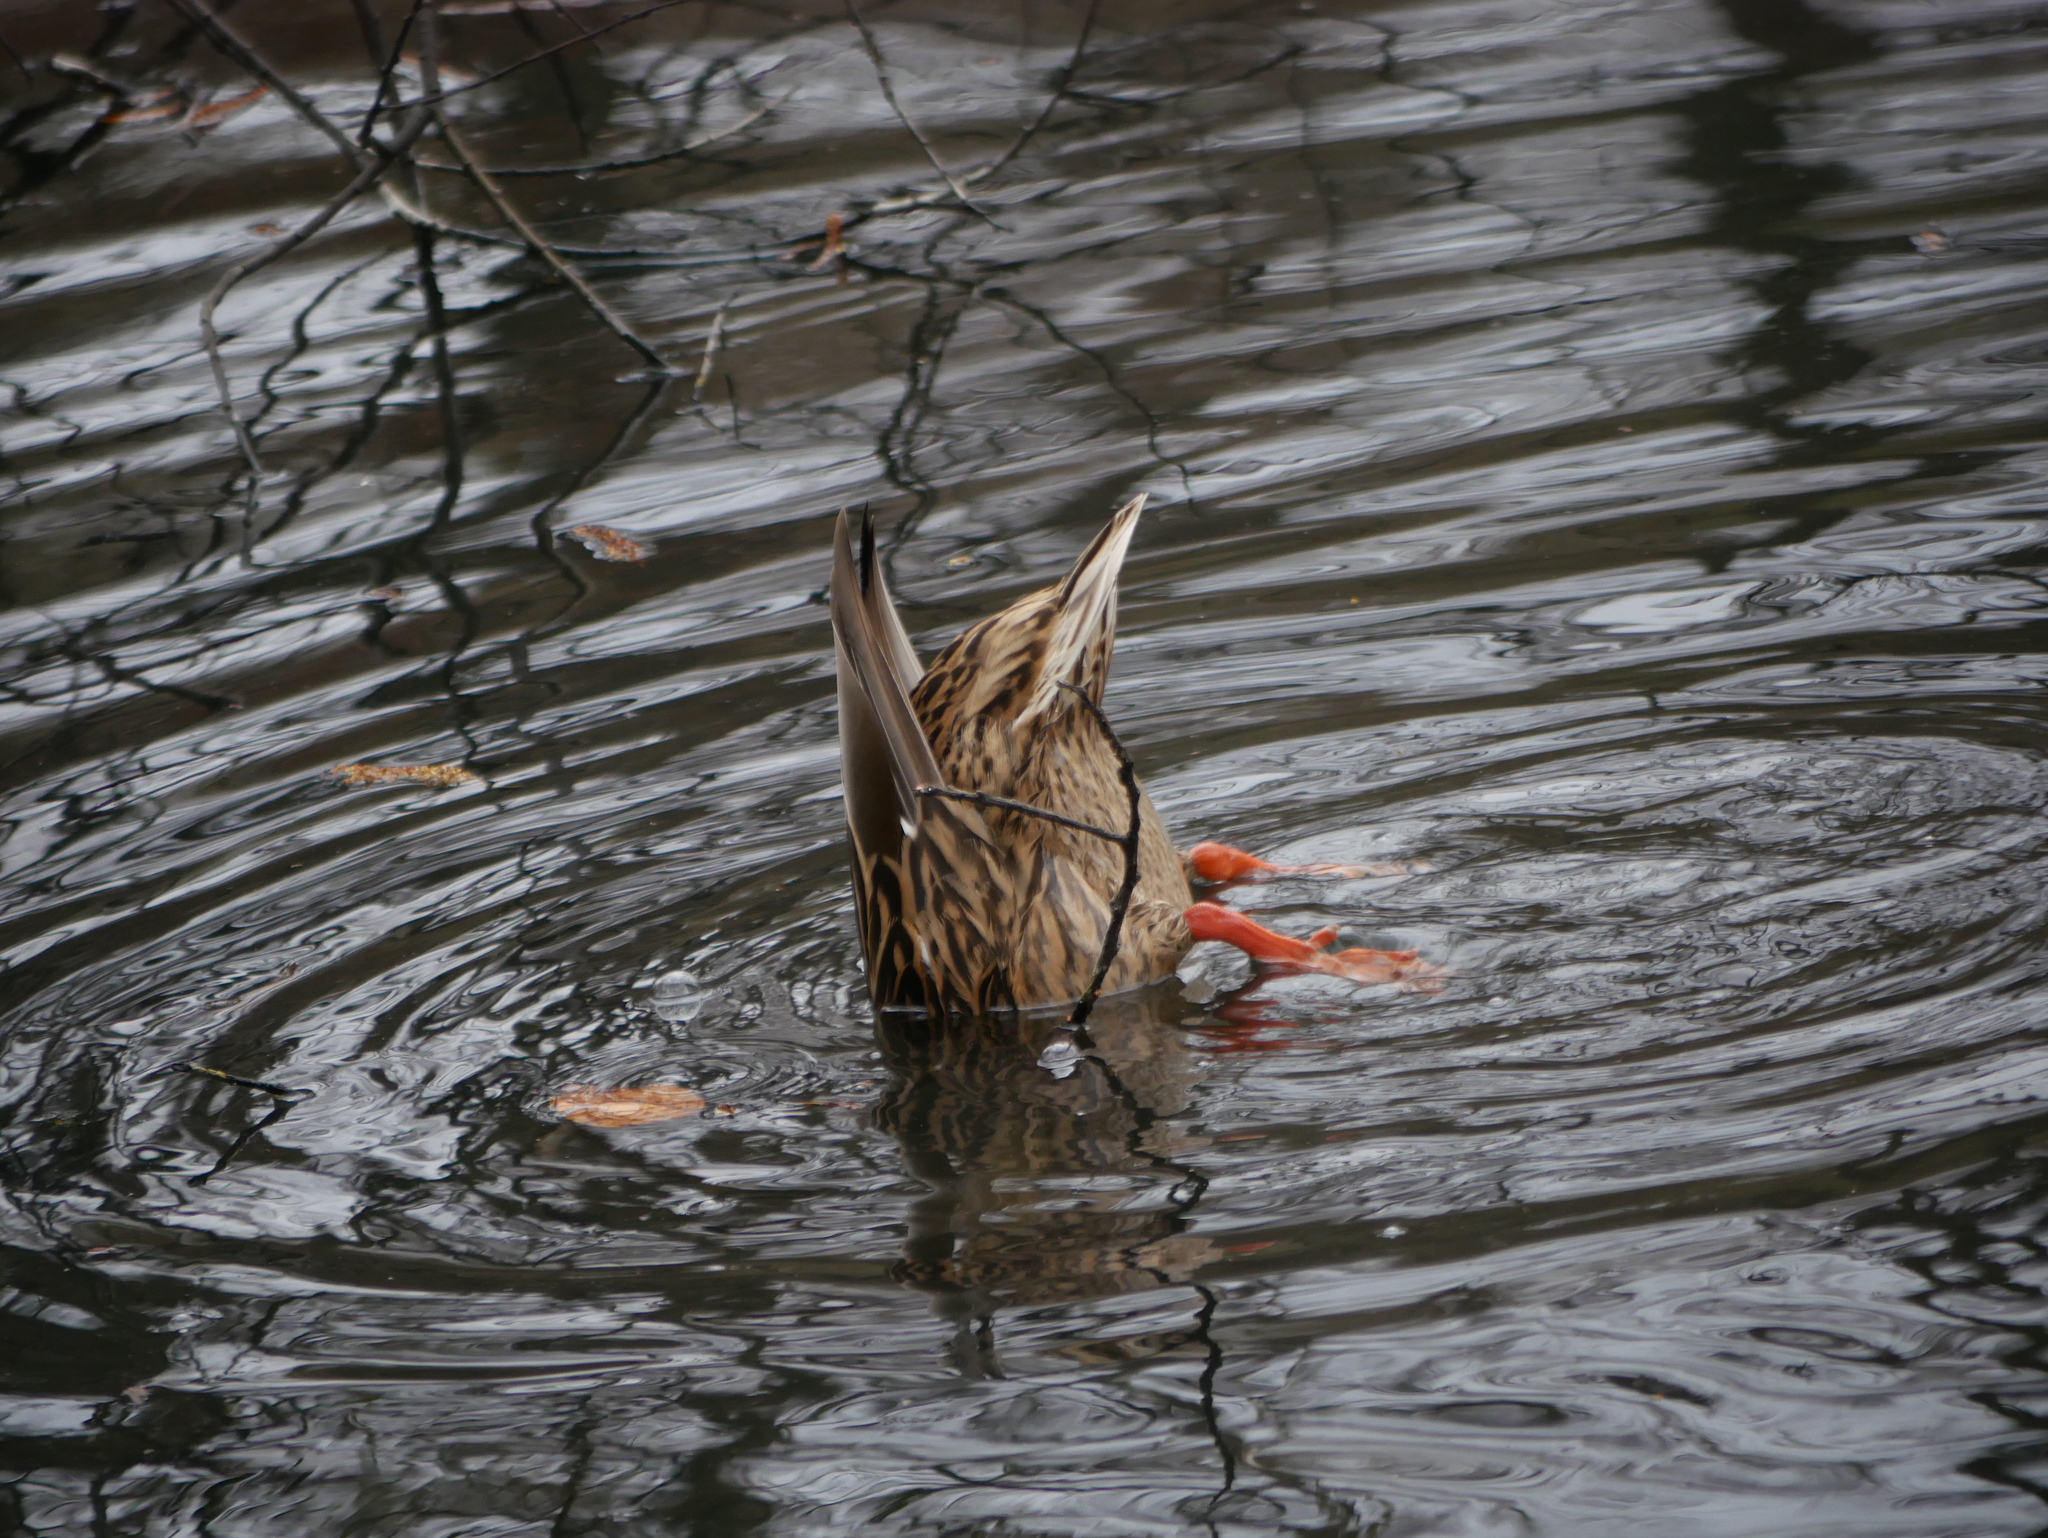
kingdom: Animalia
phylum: Chordata
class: Aves
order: Anseriformes
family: Anatidae
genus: Anas
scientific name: Anas platyrhynchos
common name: Mallard
